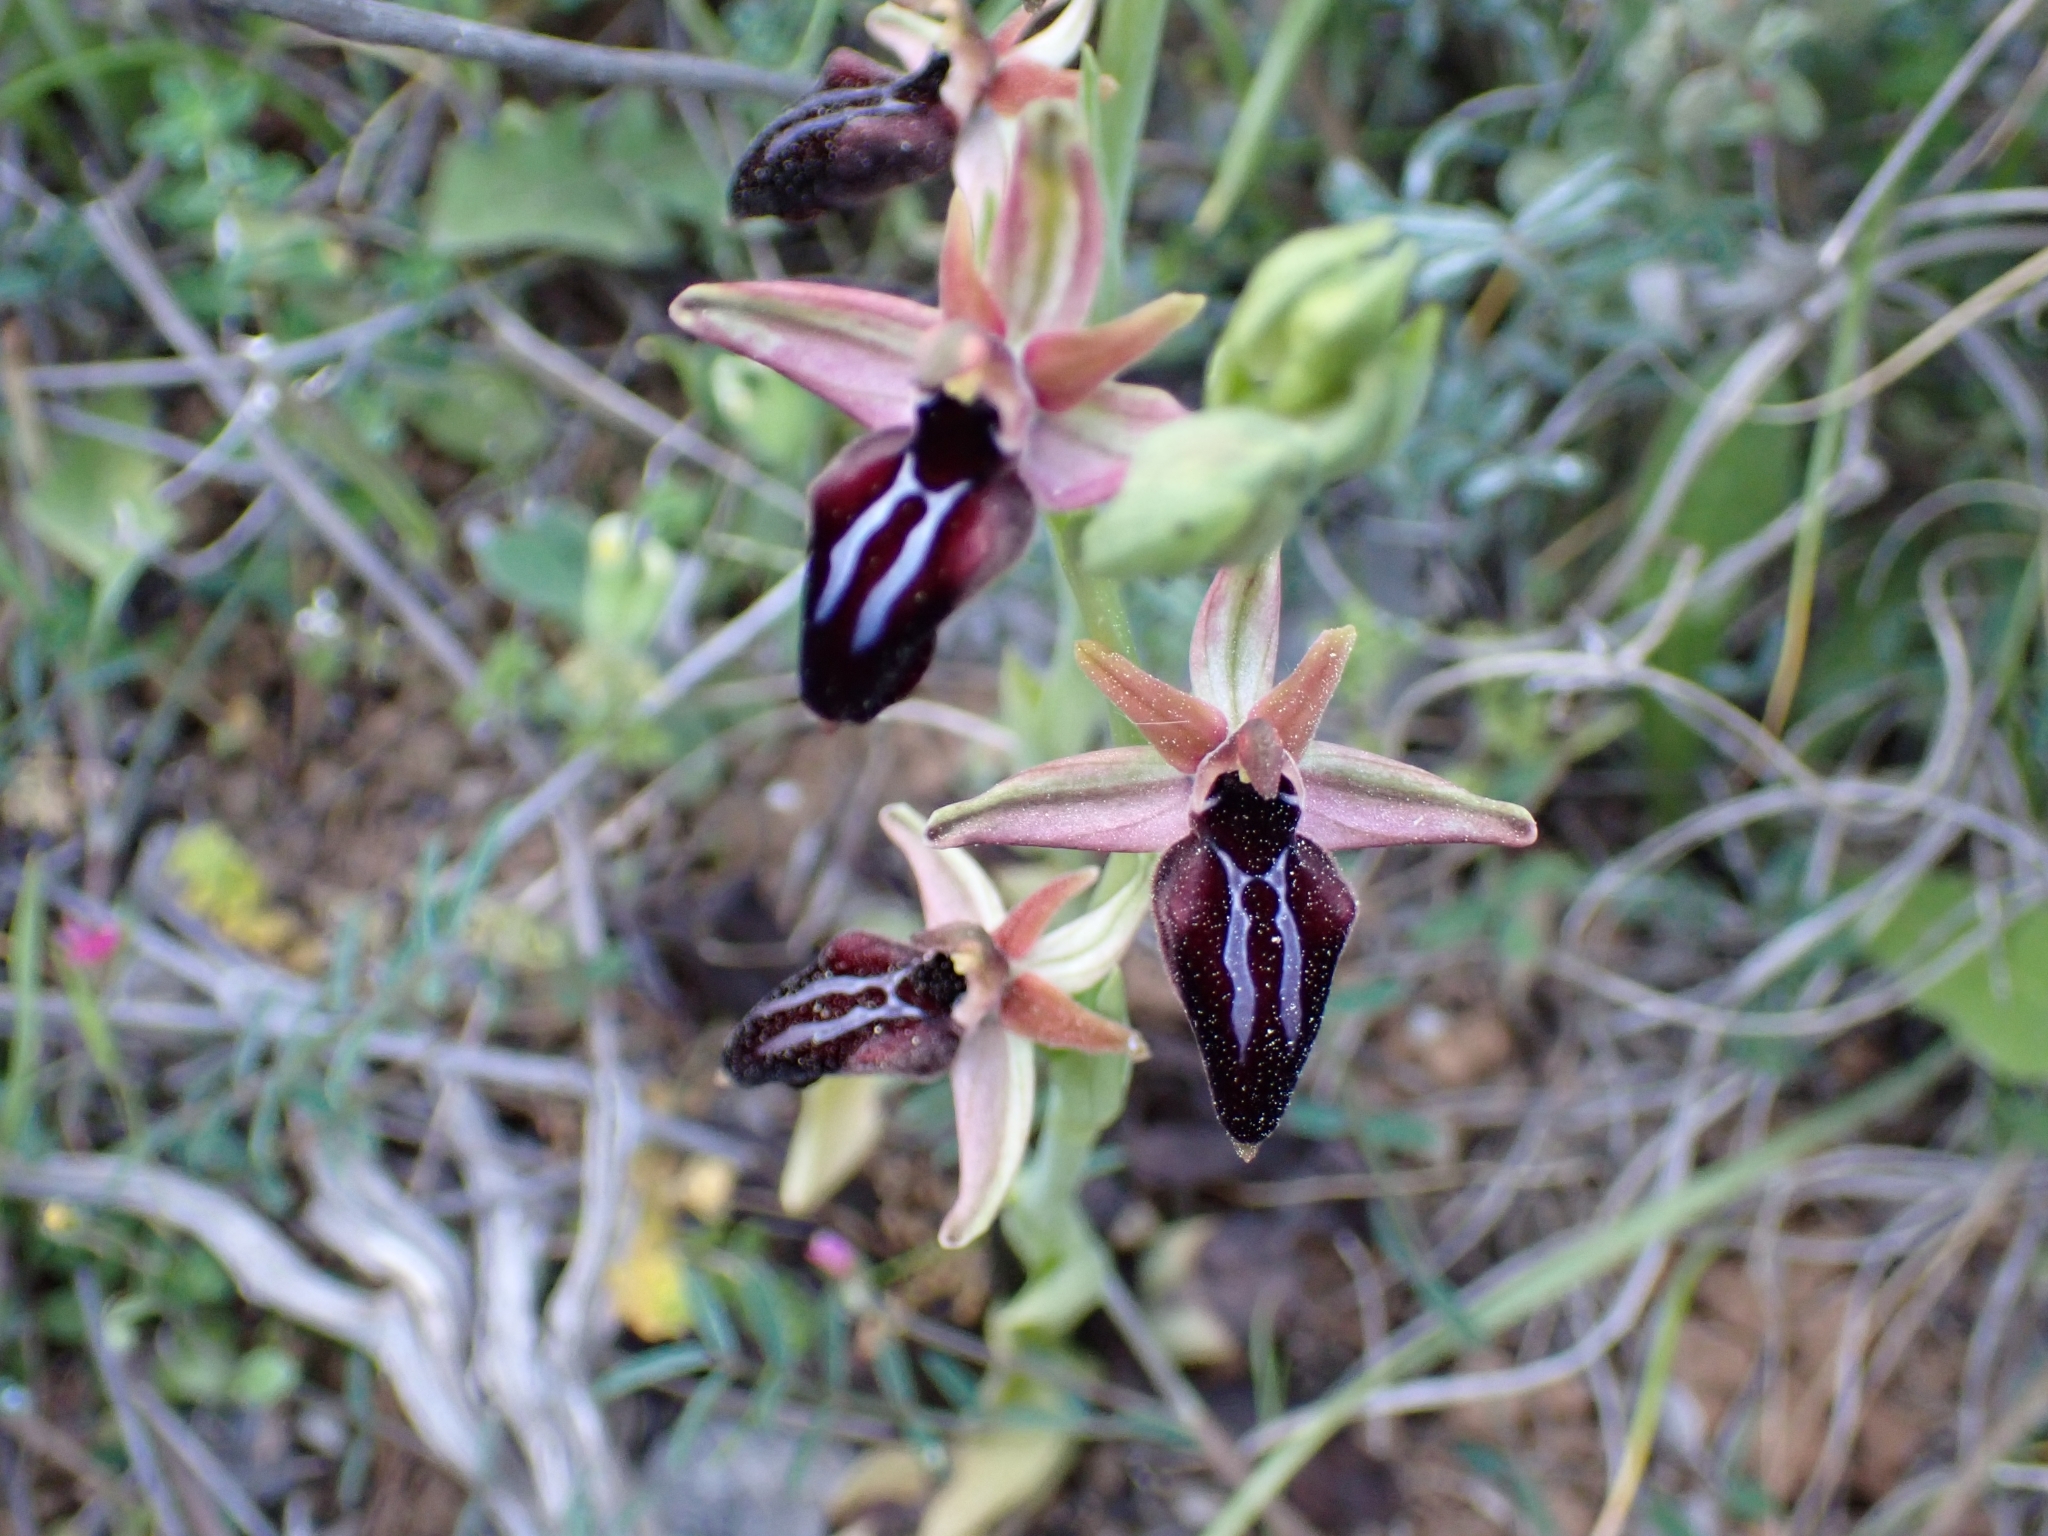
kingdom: Plantae
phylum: Tracheophyta
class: Liliopsida
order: Asparagales
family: Orchidaceae
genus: Ophrys
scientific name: Ophrys sphegodes
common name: Early spider-orchid
